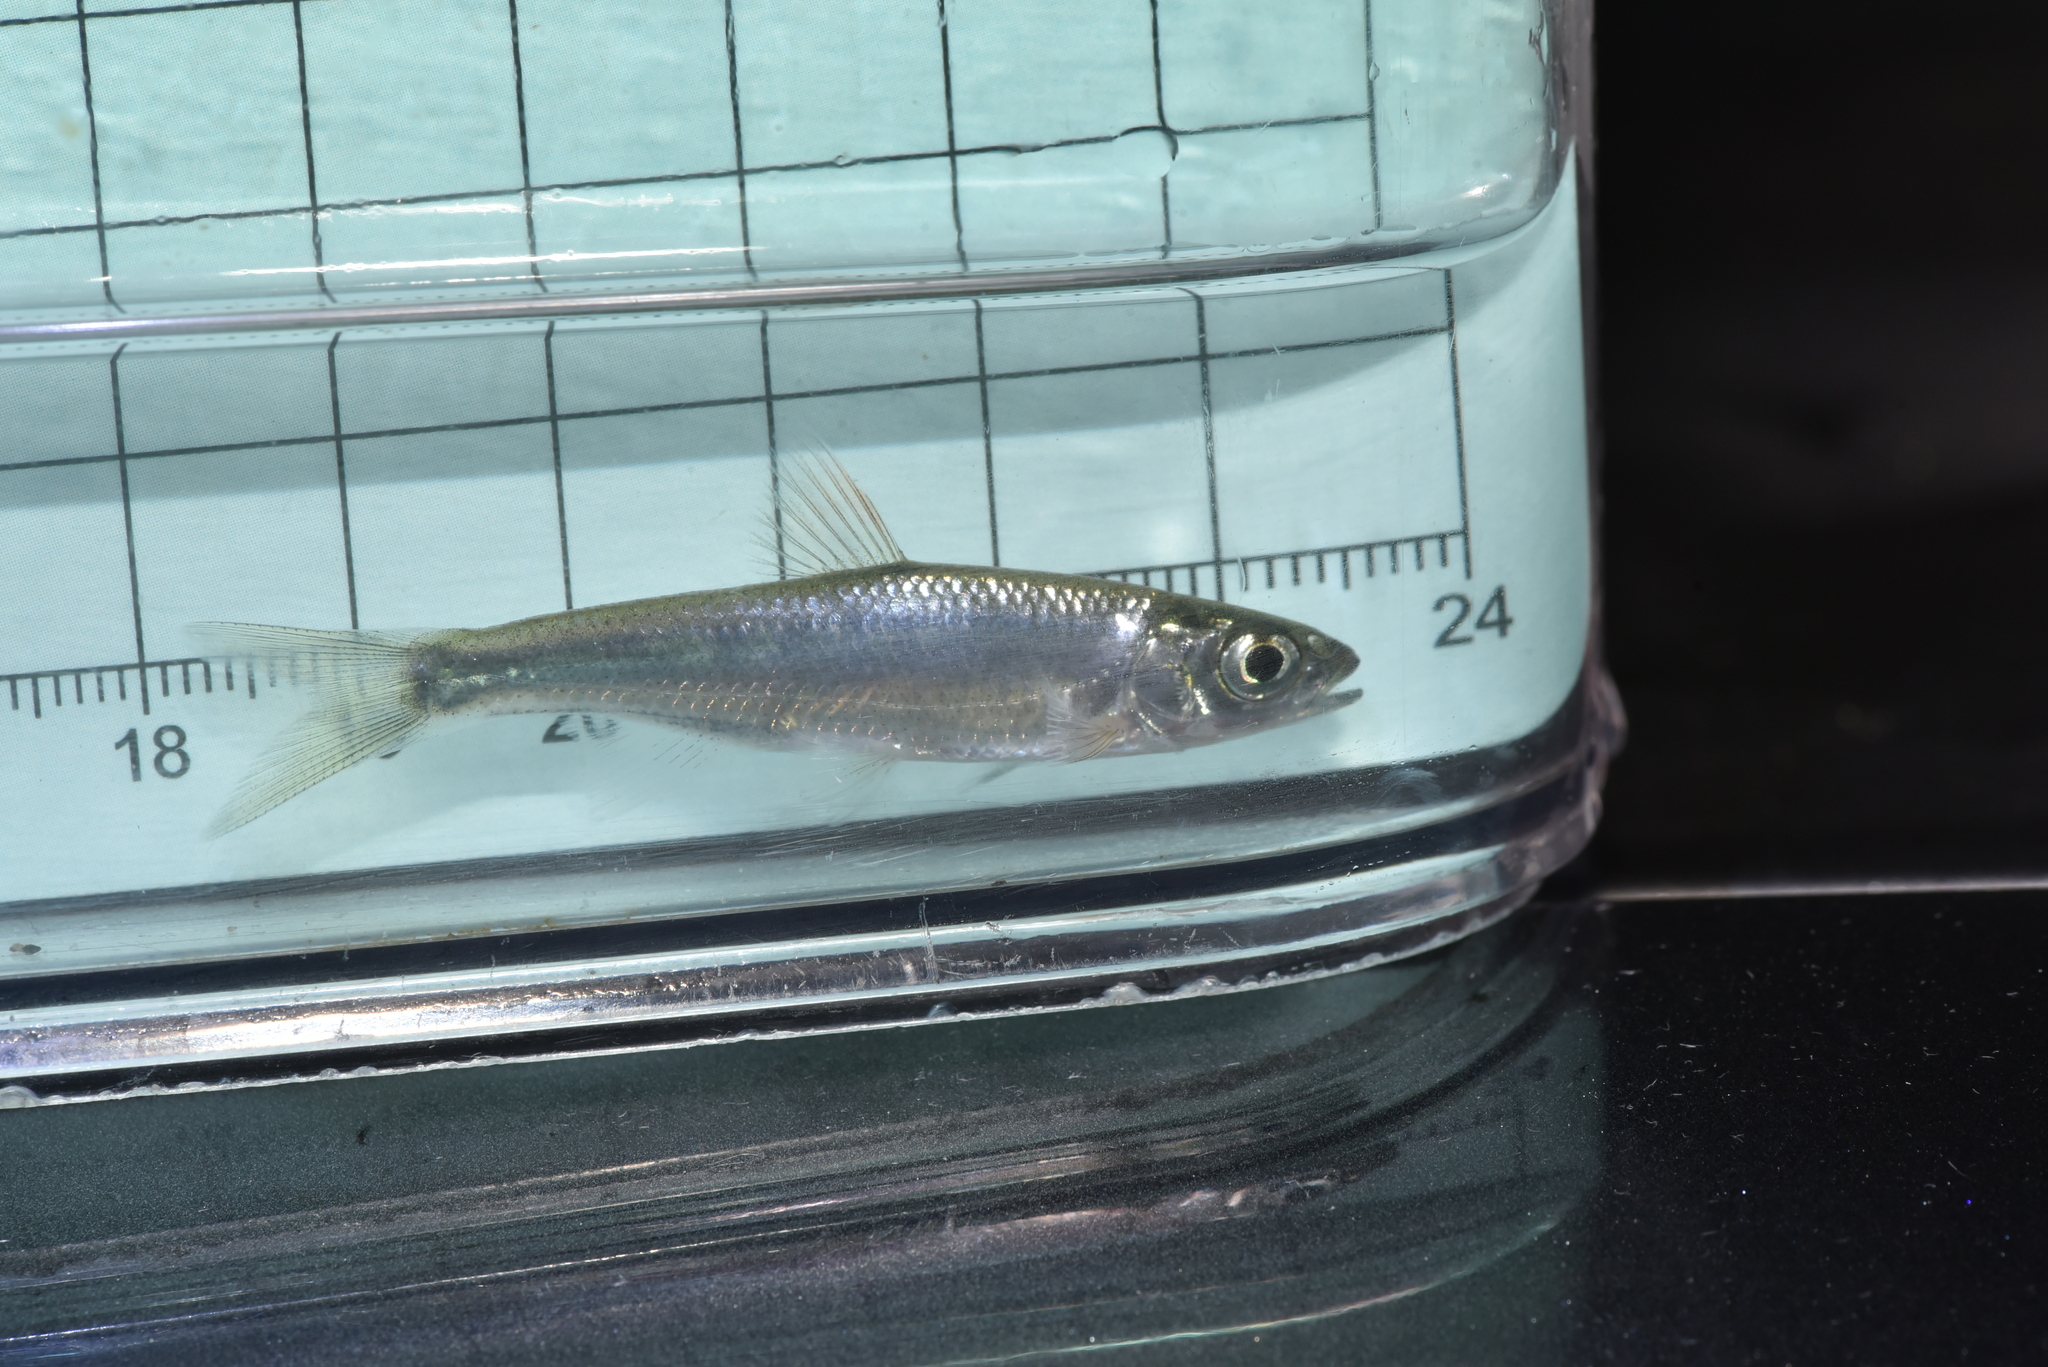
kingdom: Animalia
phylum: Chordata
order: Cypriniformes
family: Cyprinidae
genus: Opsariichthys
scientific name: Opsariichthys pachycephalus
